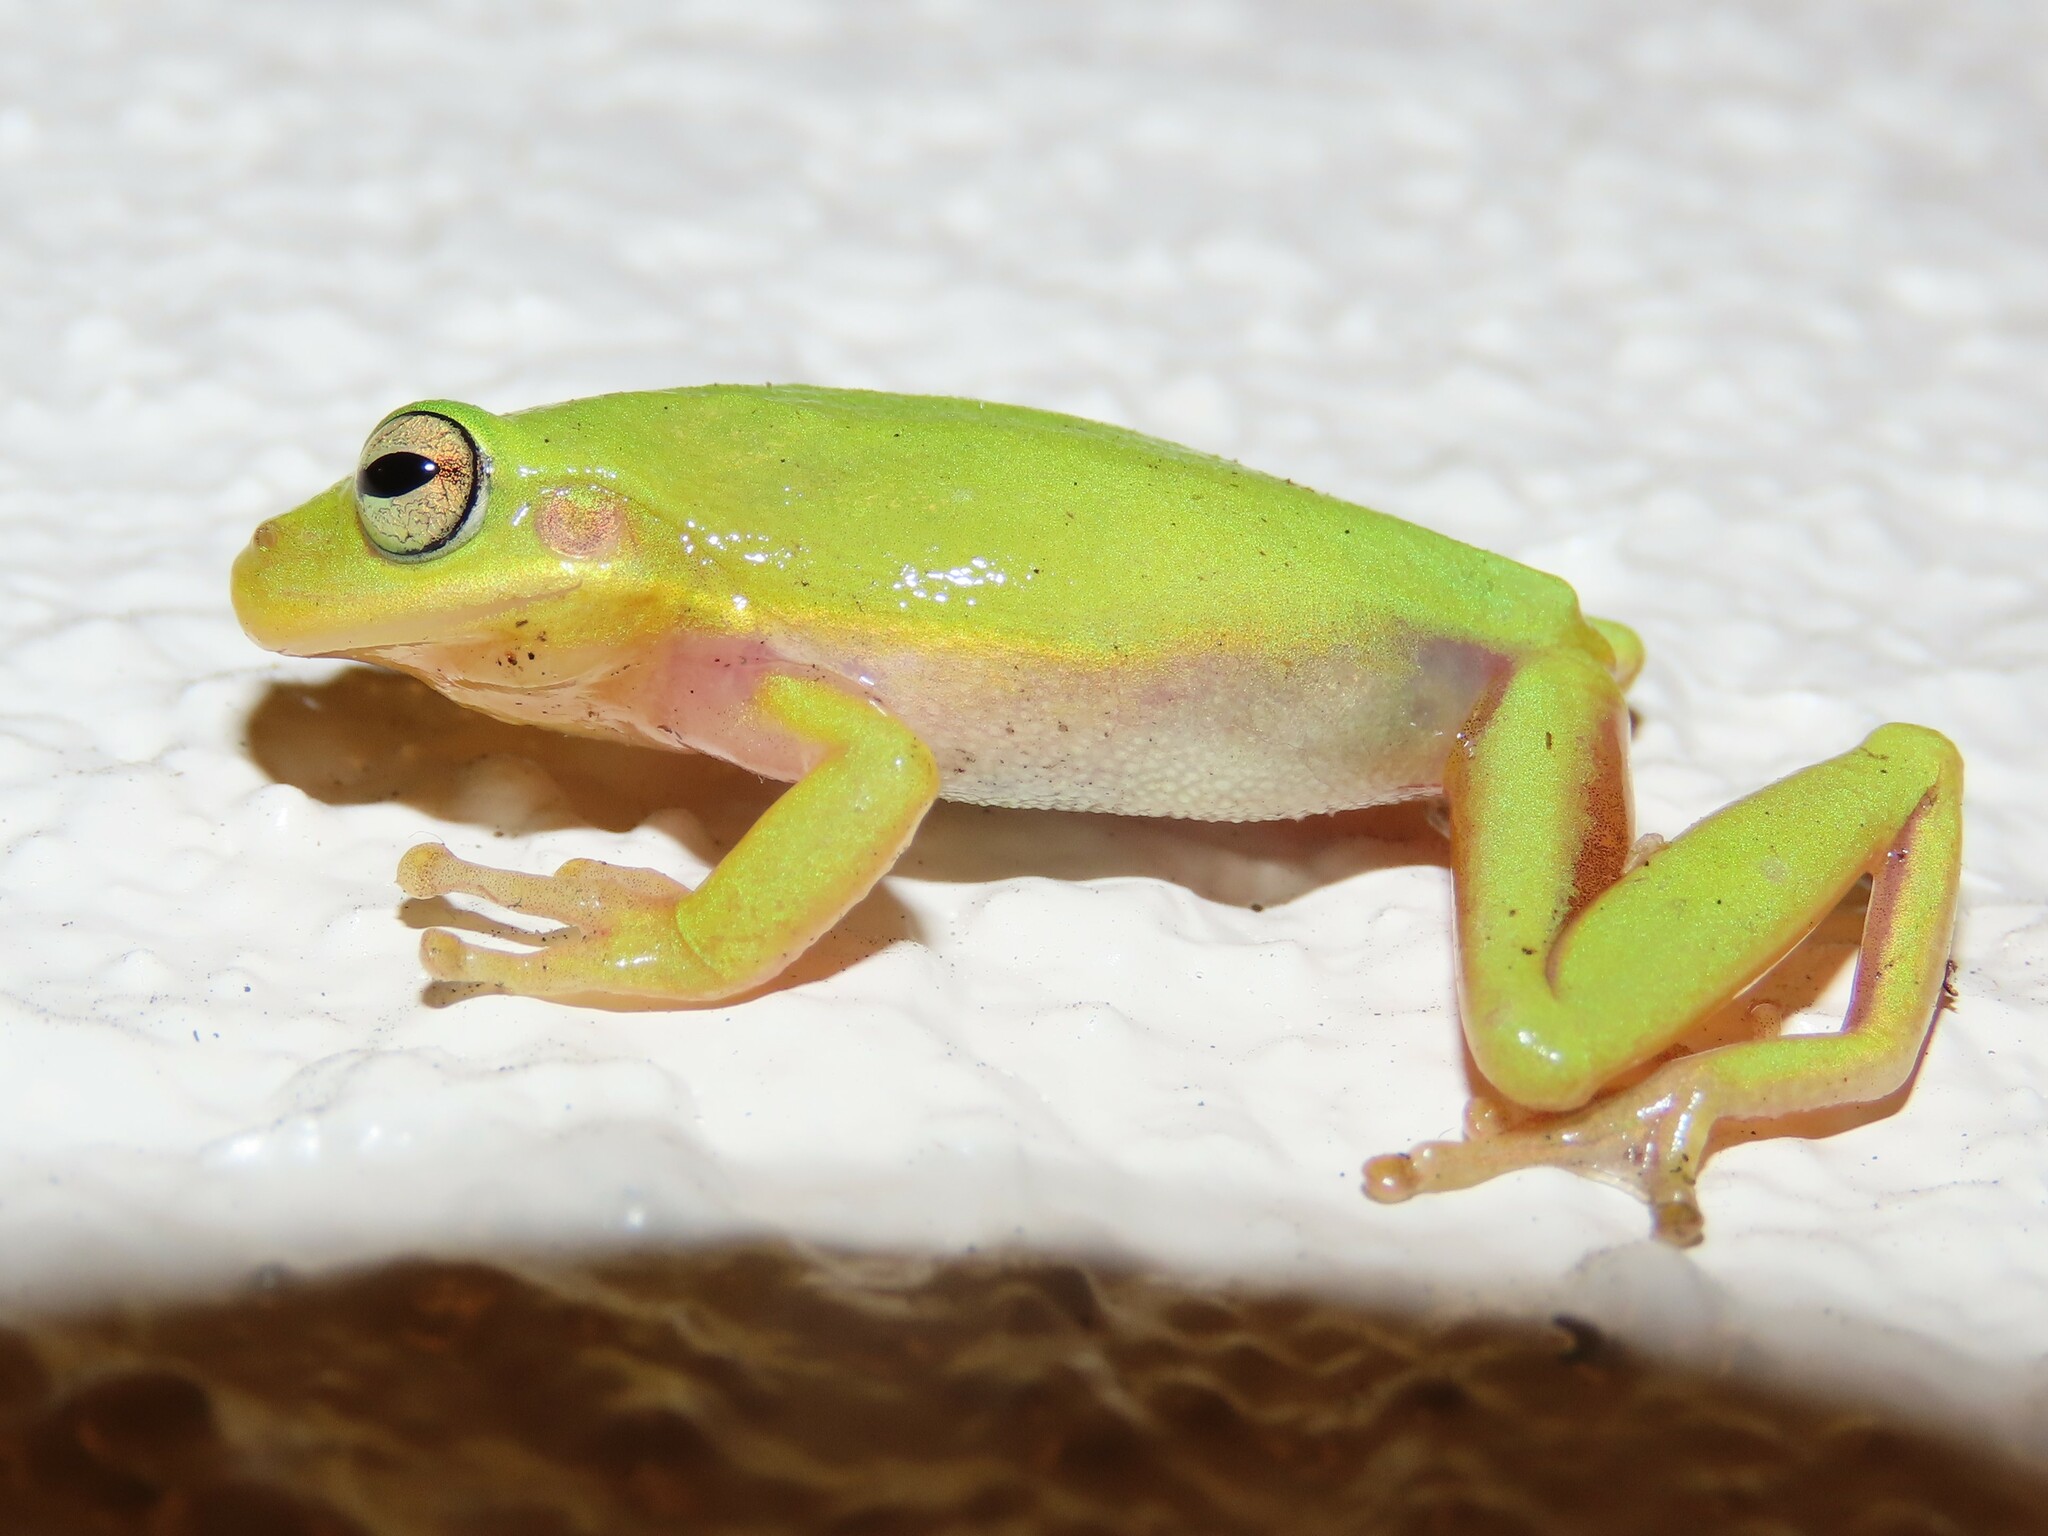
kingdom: Animalia
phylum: Chordata
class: Amphibia
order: Anura
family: Hylidae
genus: Dryophytes
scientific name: Dryophytes squirellus
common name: Squirrel treefrog
